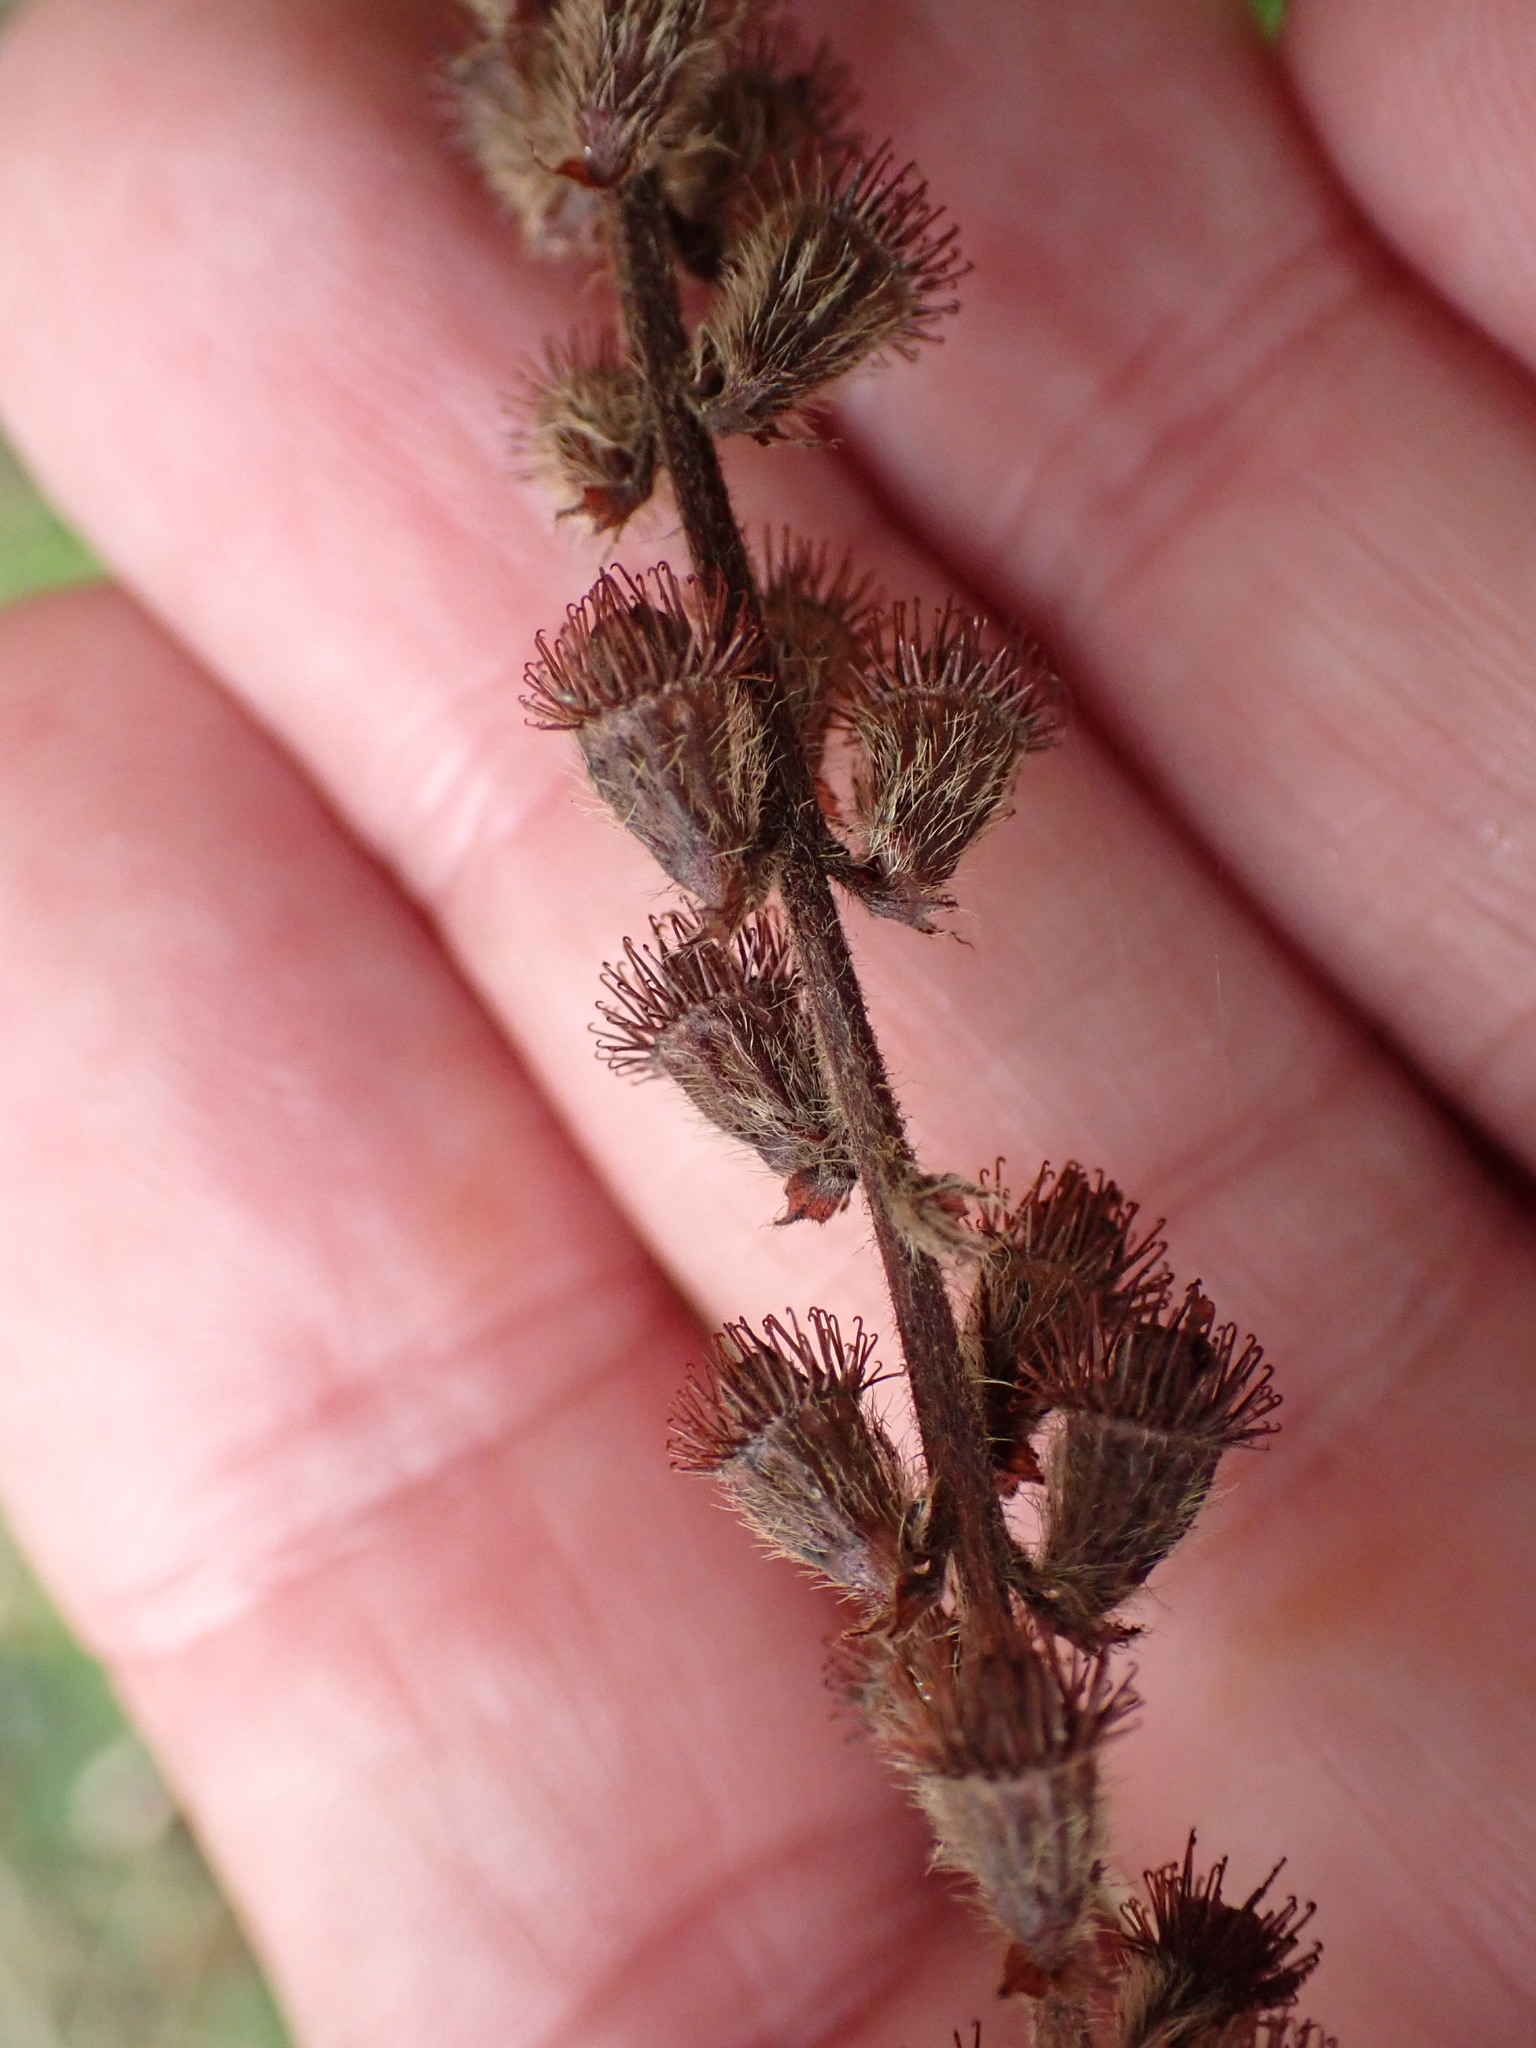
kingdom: Plantae
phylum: Tracheophyta
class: Magnoliopsida
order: Rosales
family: Rosaceae
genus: Agrimonia
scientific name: Agrimonia eupatoria
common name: Agrimony
